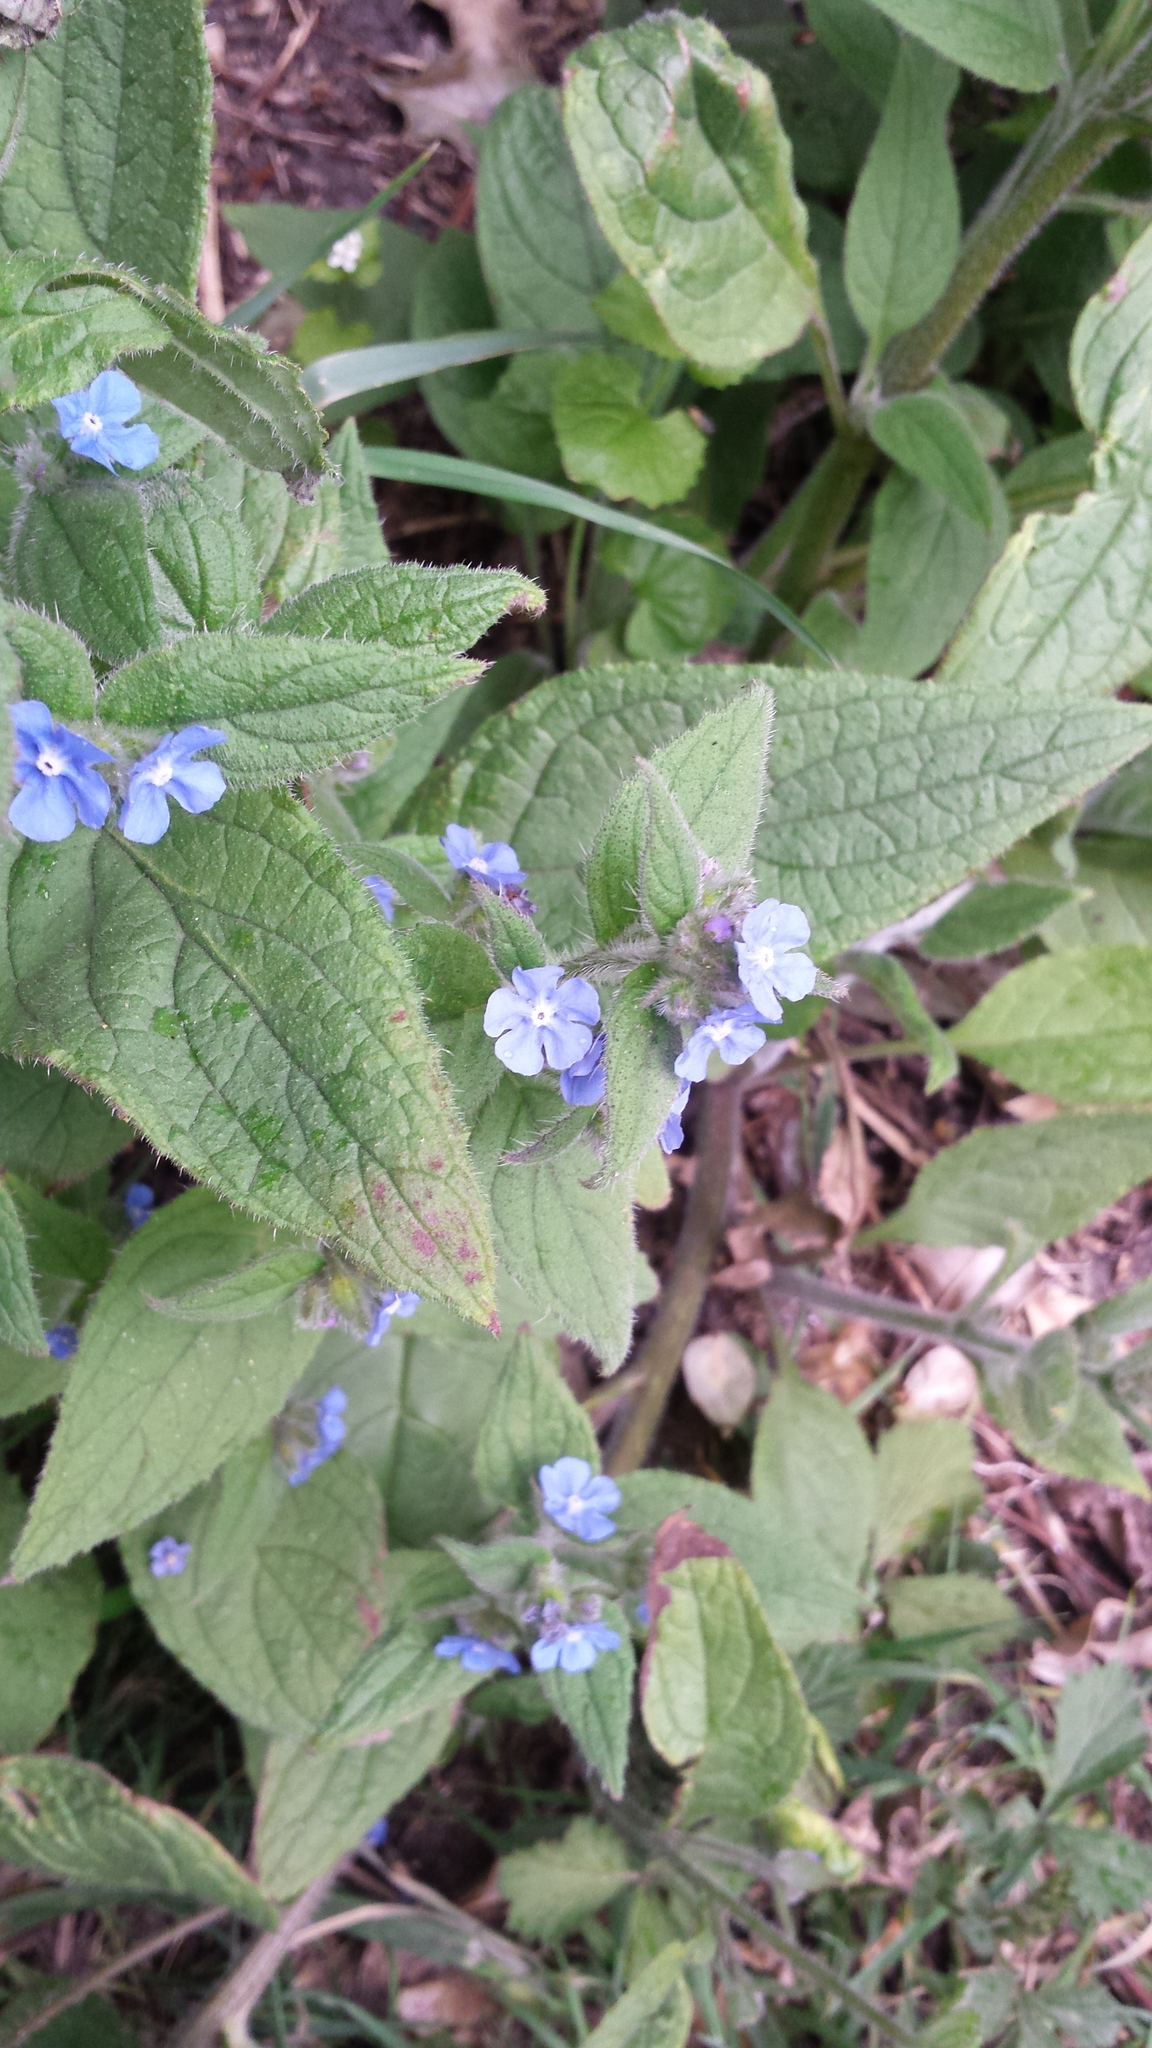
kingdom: Plantae
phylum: Tracheophyta
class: Magnoliopsida
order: Boraginales
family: Boraginaceae
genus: Pentaglottis
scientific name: Pentaglottis sempervirens
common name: Green alkanet
